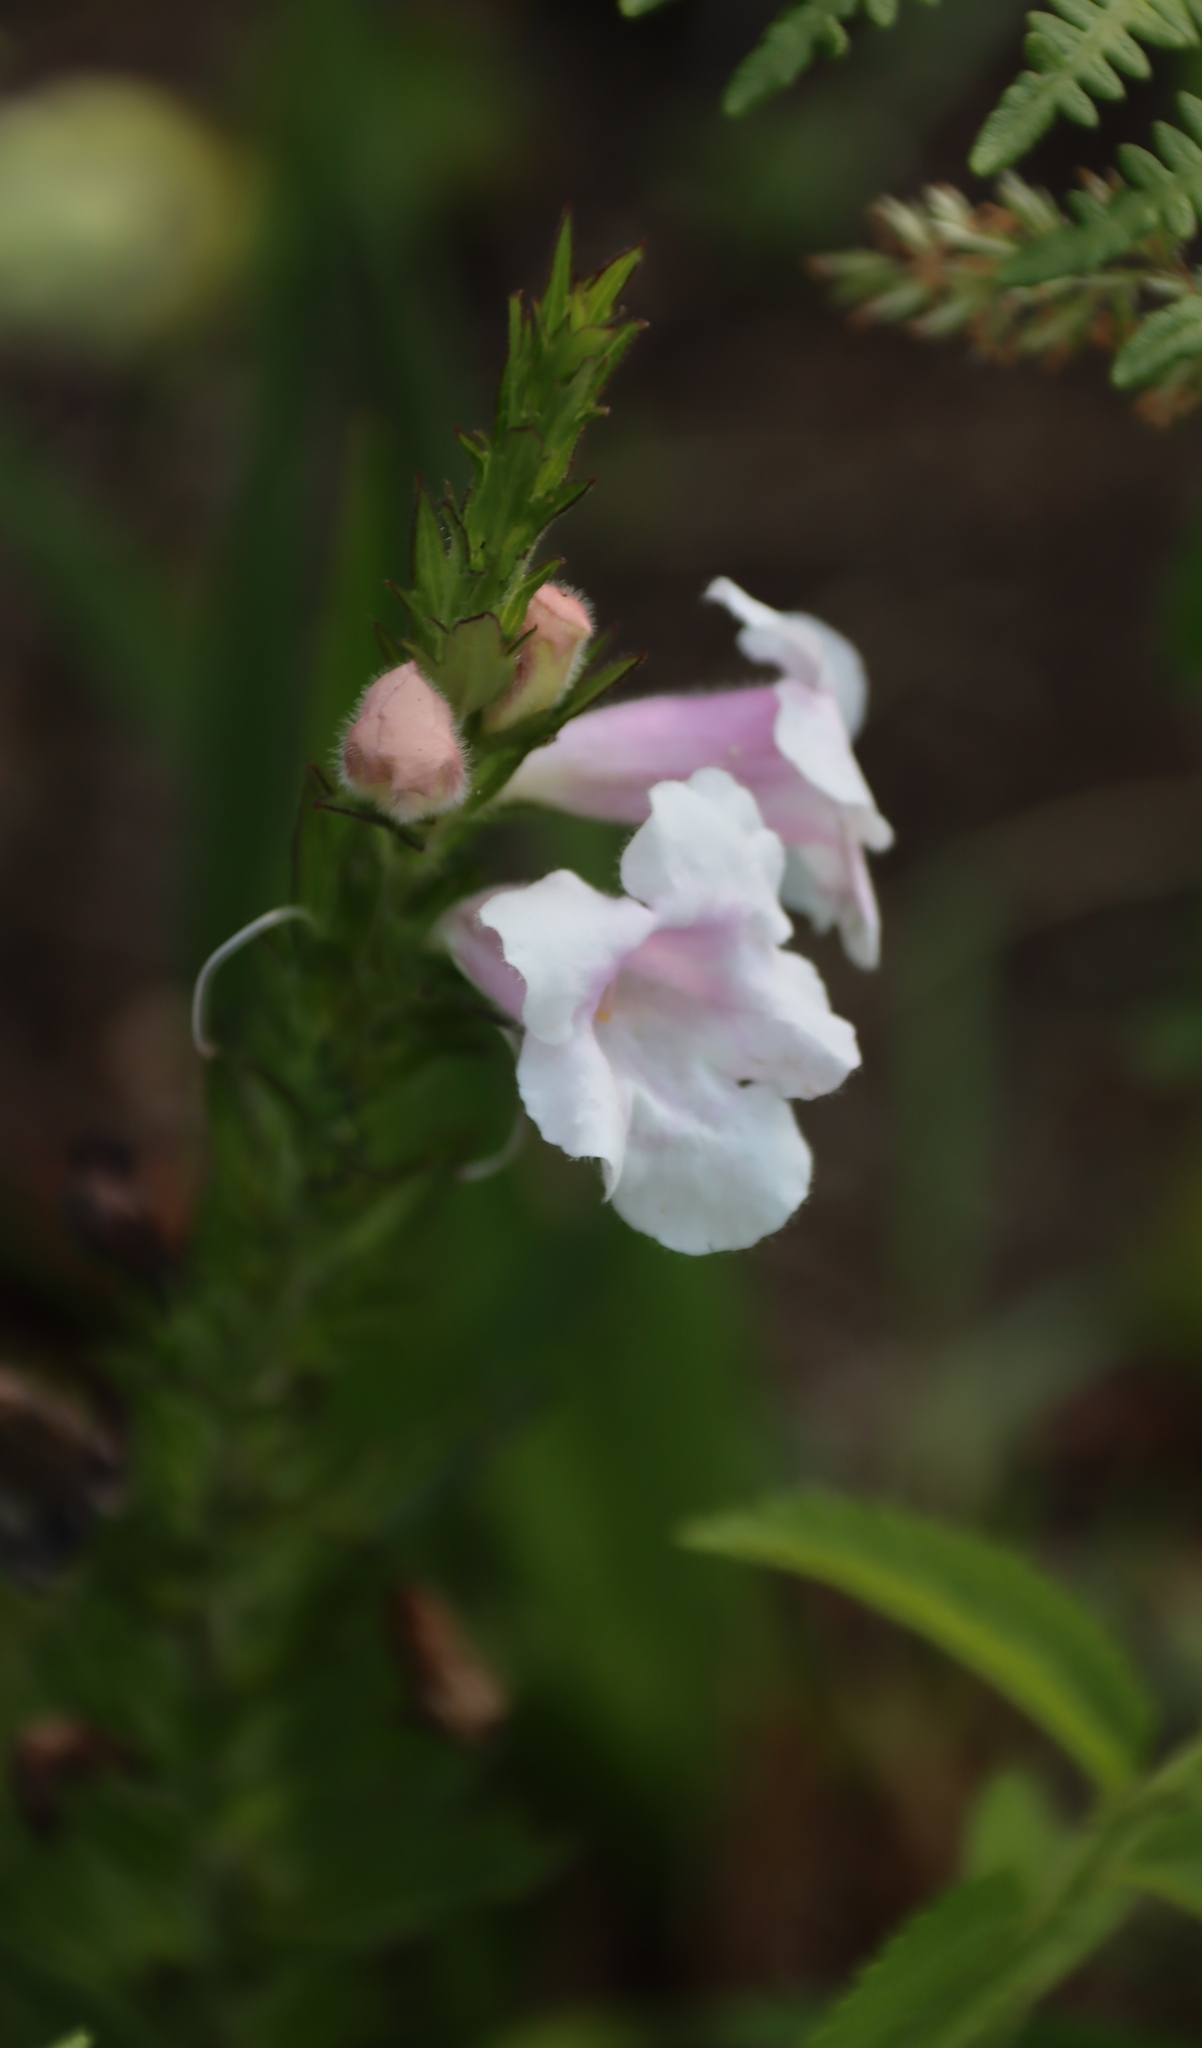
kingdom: Plantae
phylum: Tracheophyta
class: Magnoliopsida
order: Lamiales
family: Orobanchaceae
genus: Graderia
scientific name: Graderia scabra
